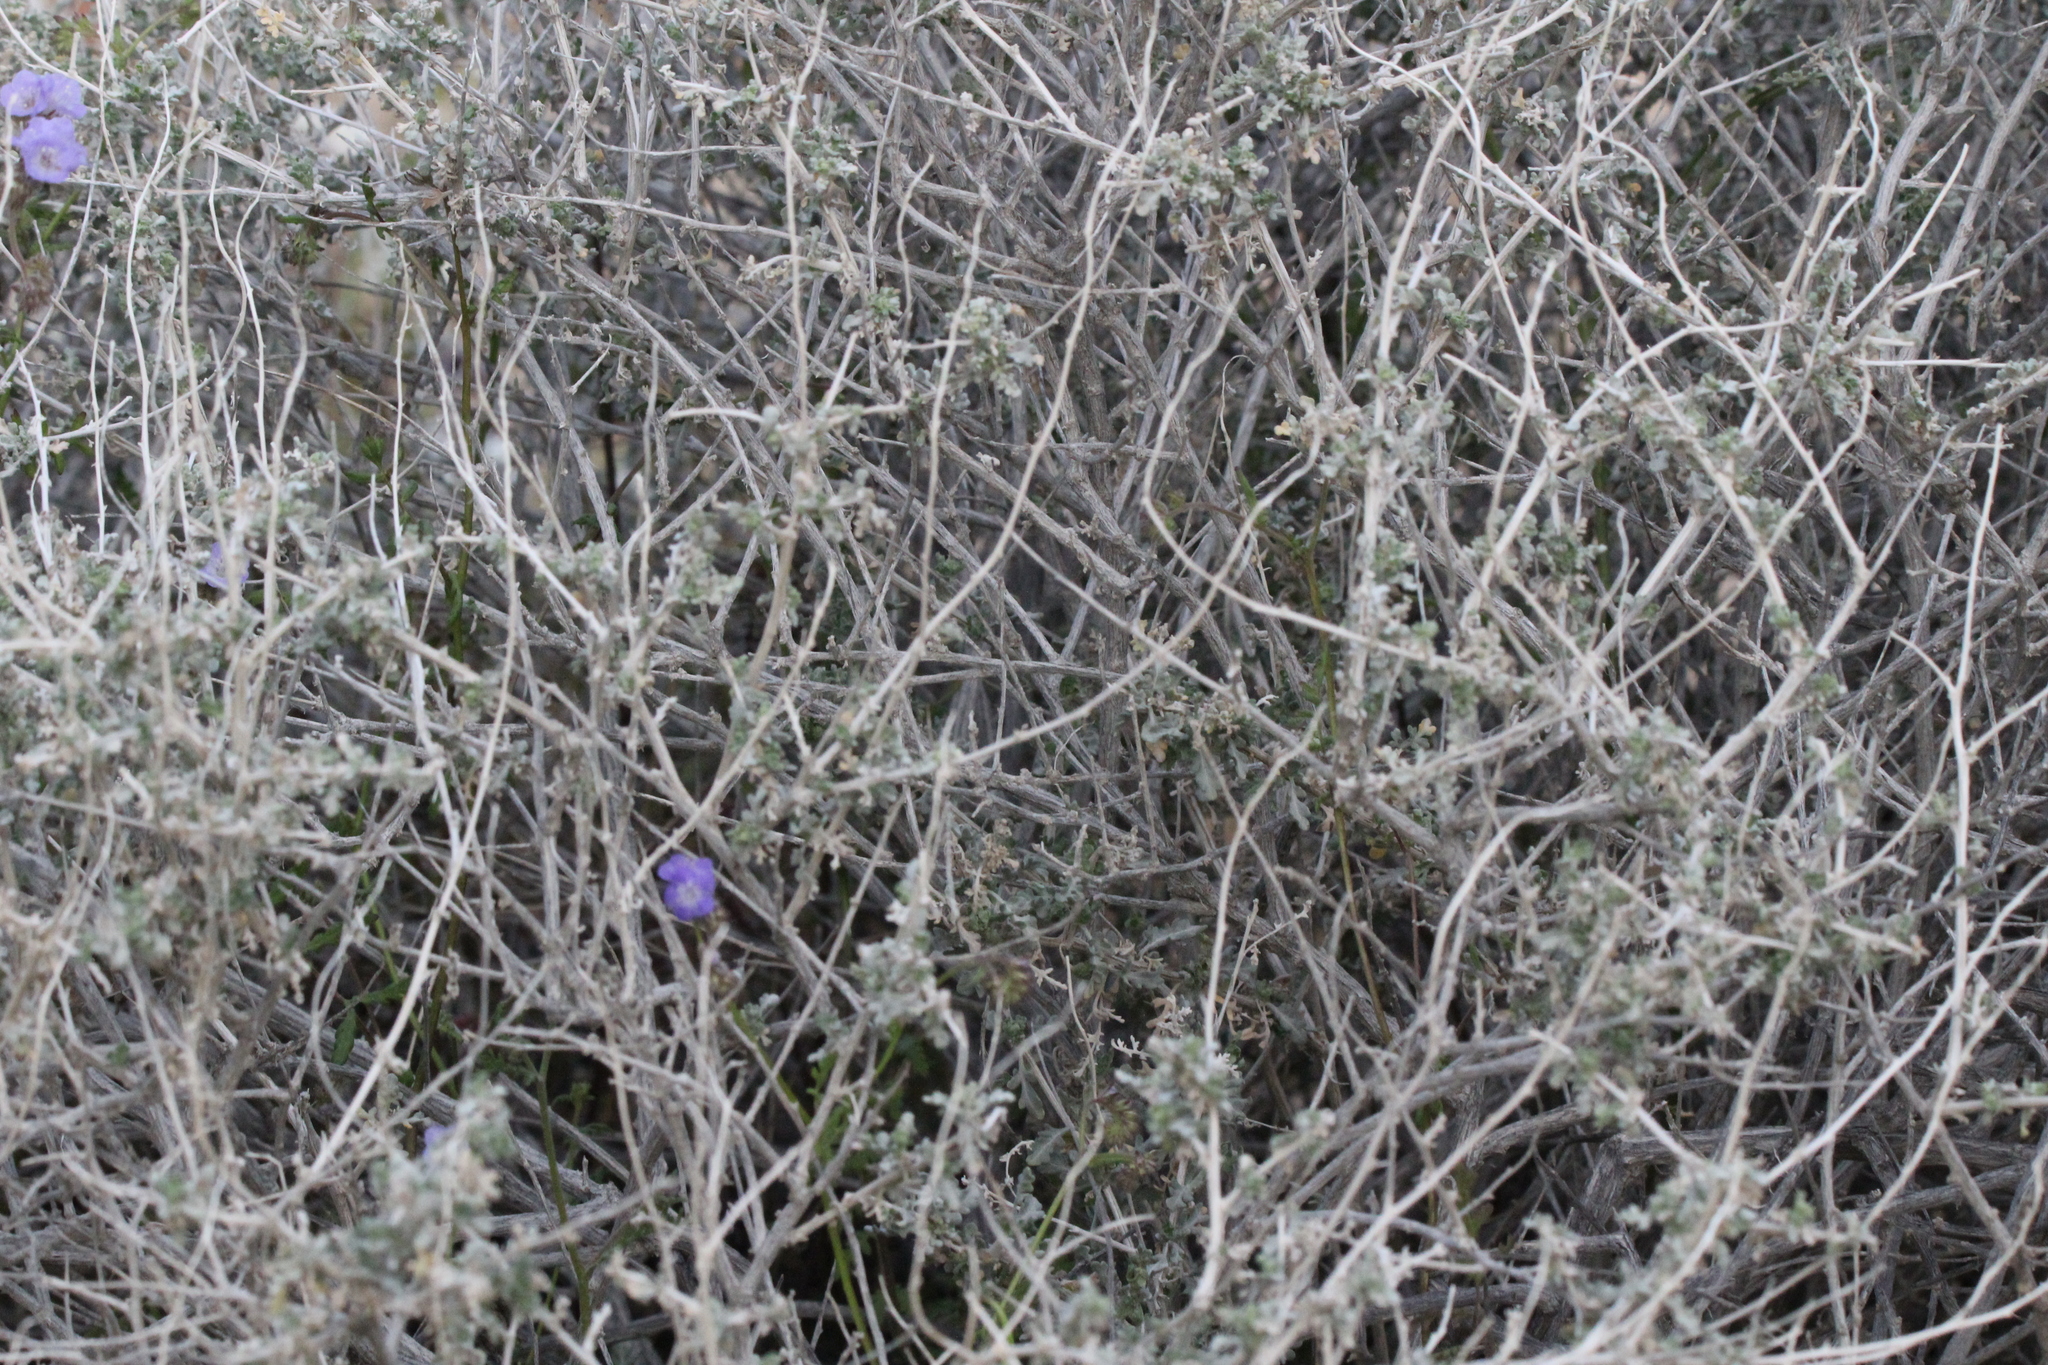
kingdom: Plantae
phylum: Tracheophyta
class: Magnoliopsida
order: Asterales
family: Asteraceae
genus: Ambrosia
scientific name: Ambrosia dumosa
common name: Bur-sage
